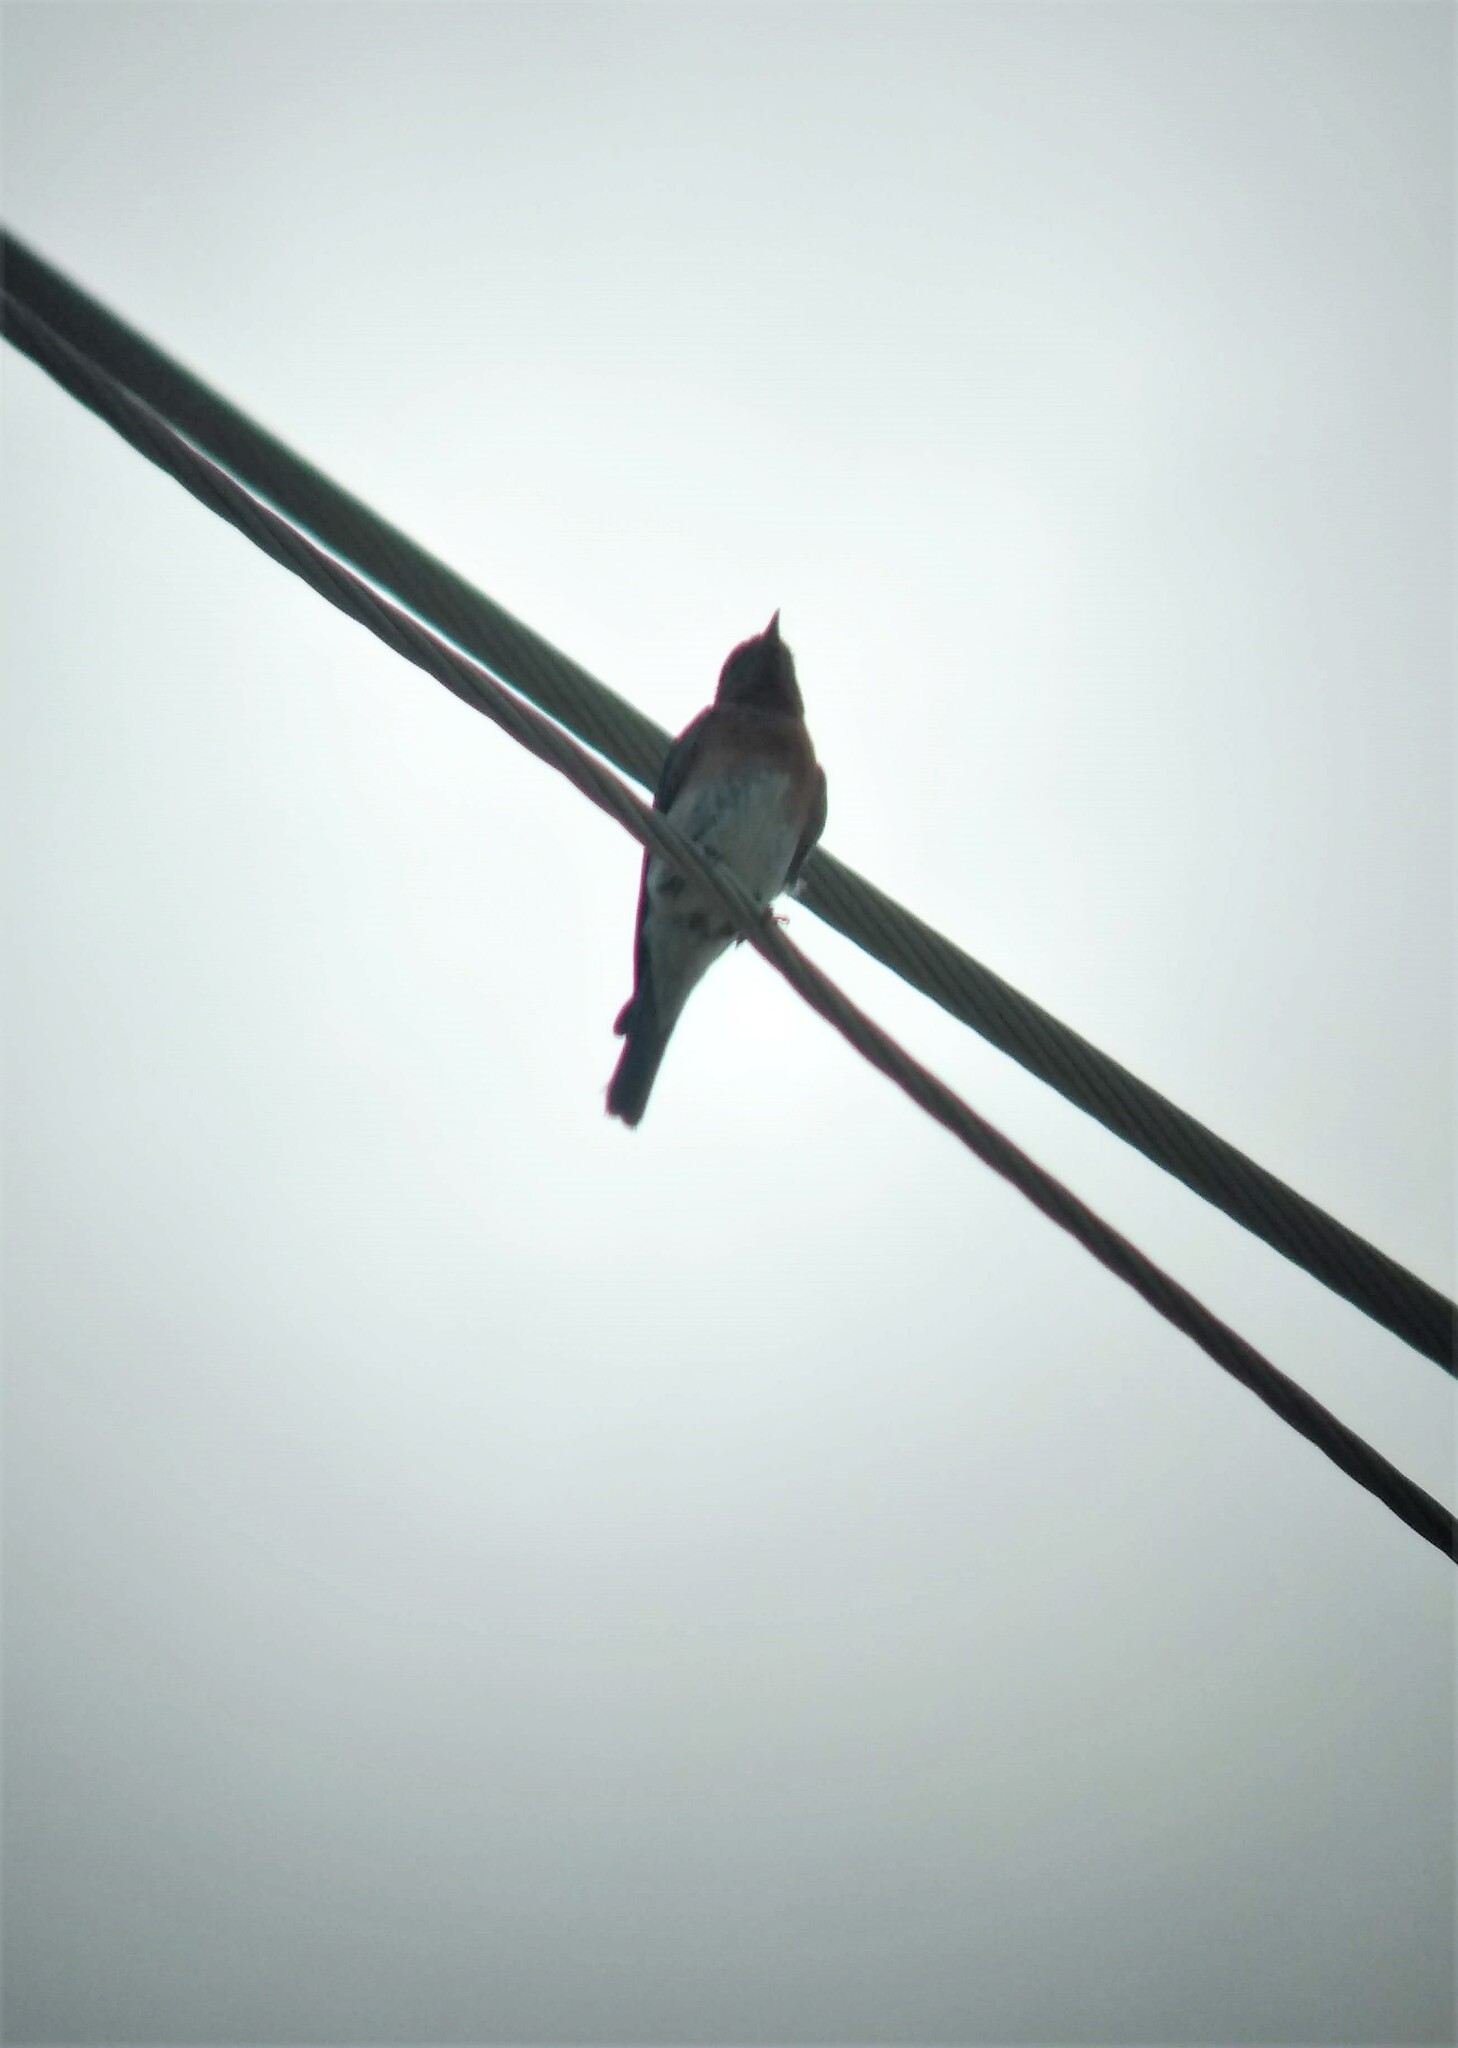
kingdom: Animalia
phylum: Chordata
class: Aves
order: Passeriformes
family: Turdidae
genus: Sialia
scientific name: Sialia sialis
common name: Eastern bluebird
